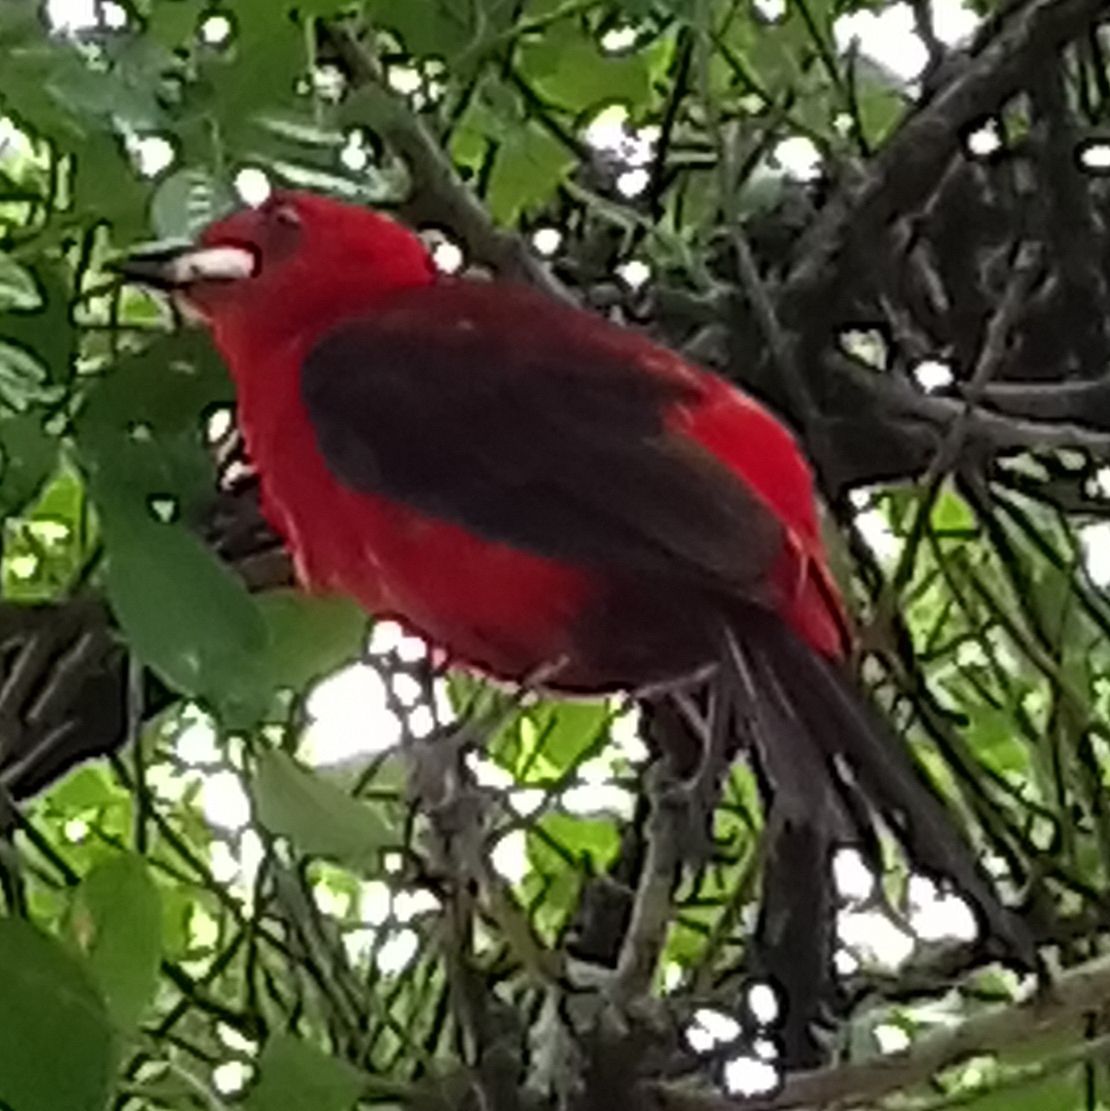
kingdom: Animalia
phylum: Chordata
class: Aves
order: Passeriformes
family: Thraupidae
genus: Ramphocelus
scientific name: Ramphocelus bresilia
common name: Brazilian tanager
